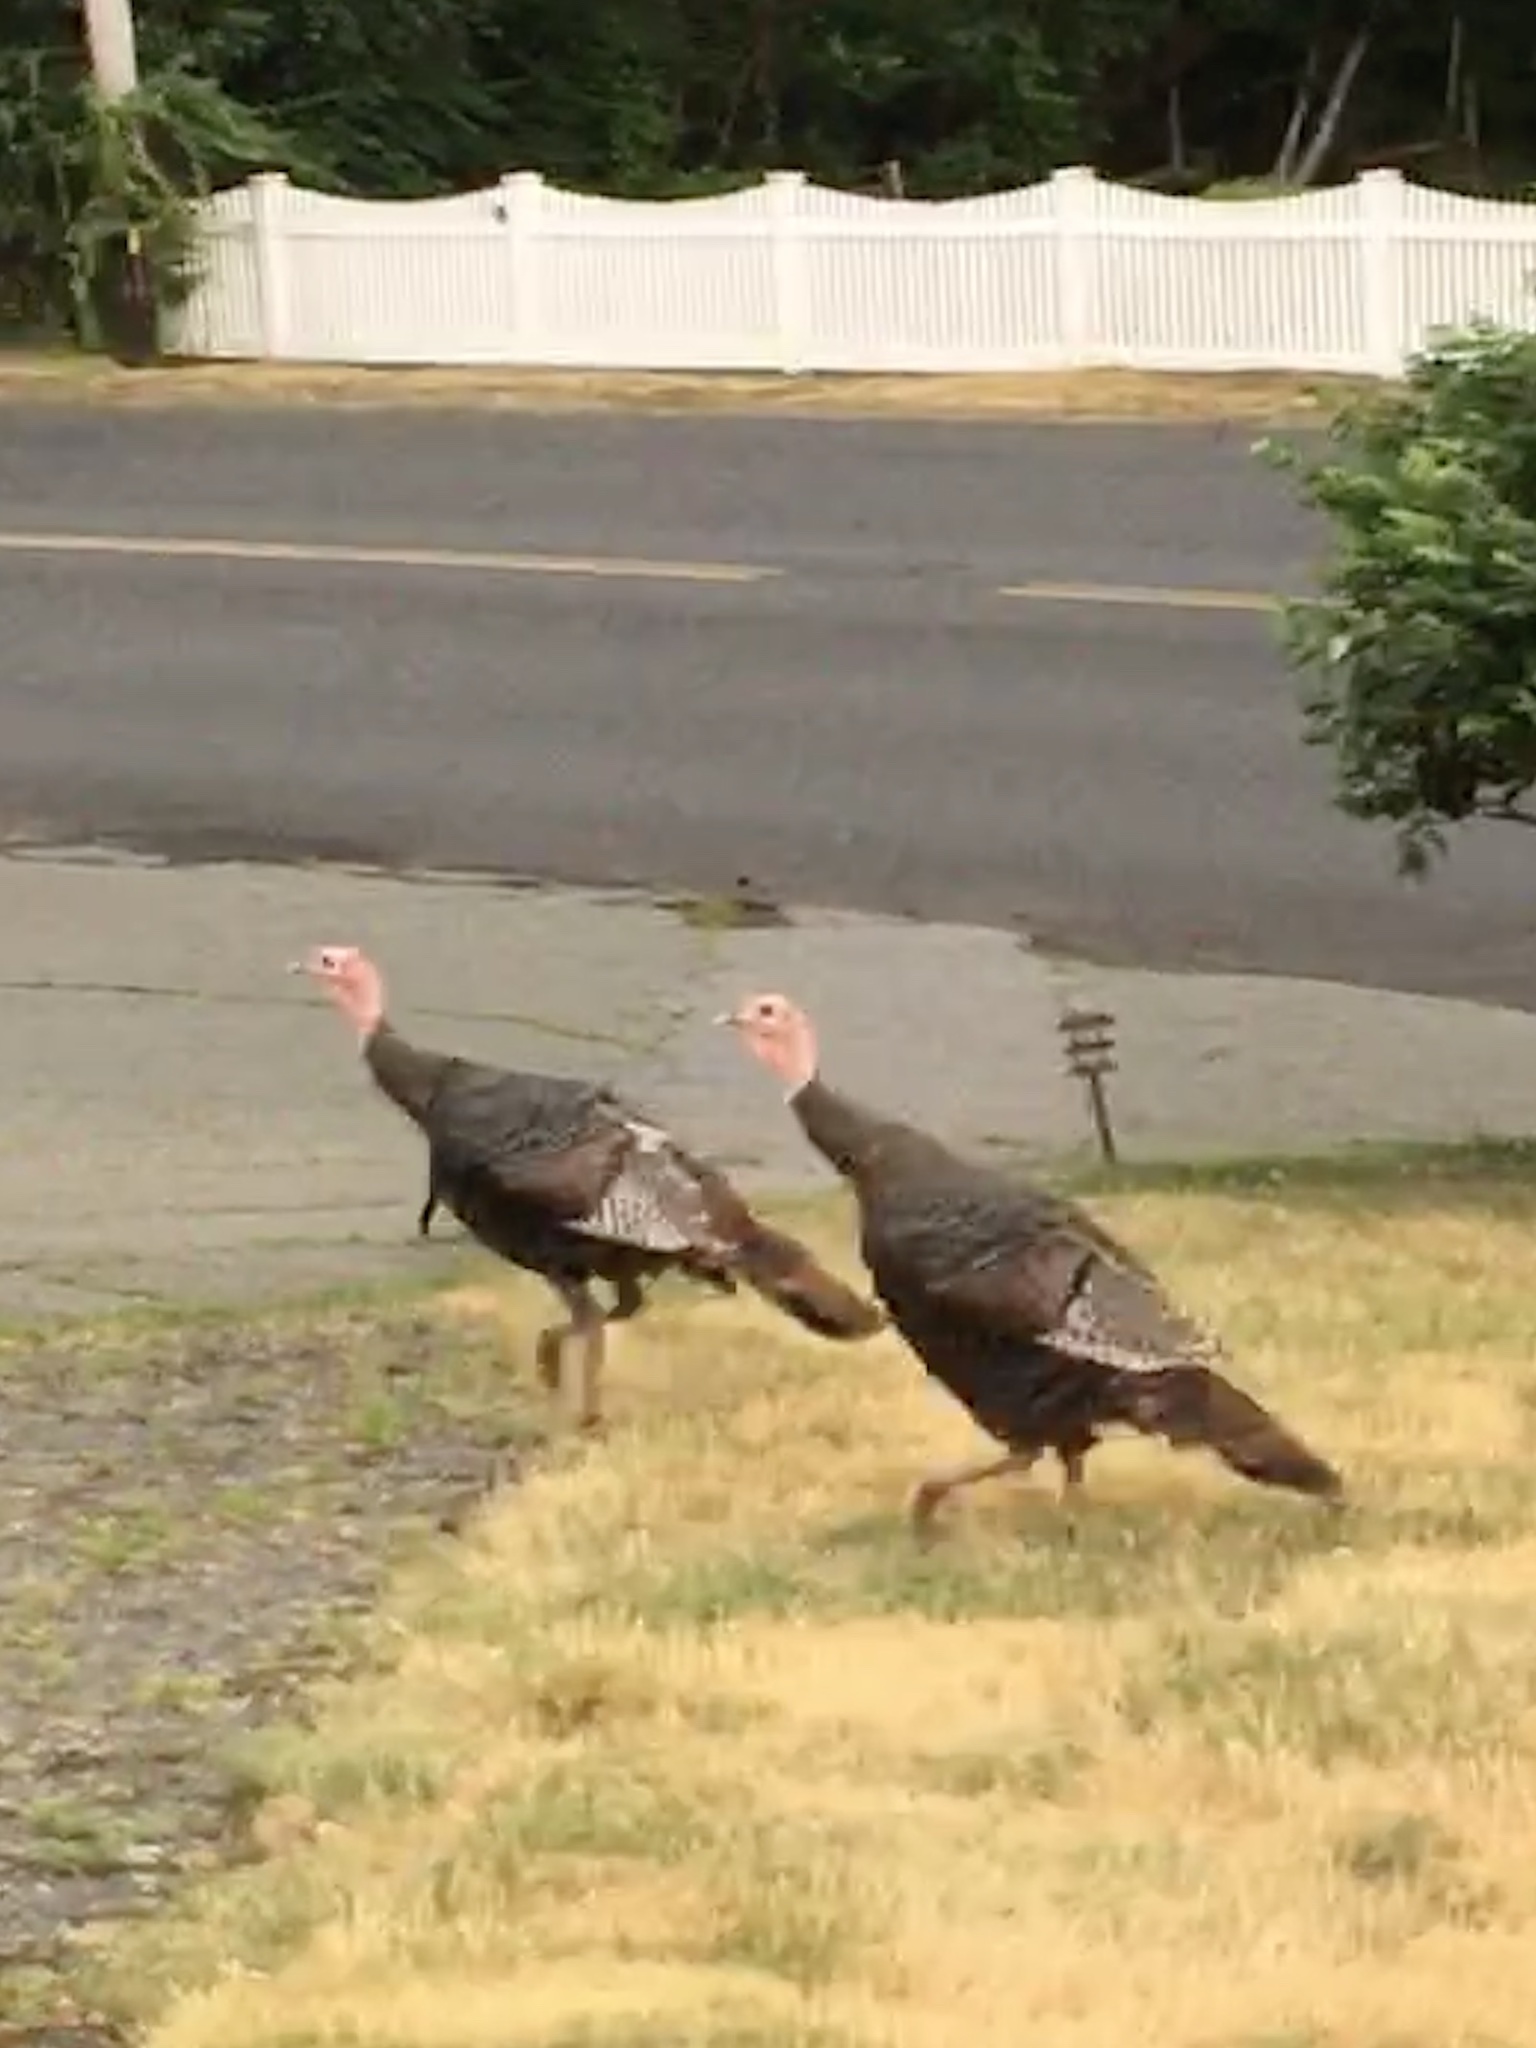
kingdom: Animalia
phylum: Chordata
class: Aves
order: Galliformes
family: Phasianidae
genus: Meleagris
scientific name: Meleagris gallopavo
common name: Wild turkey
